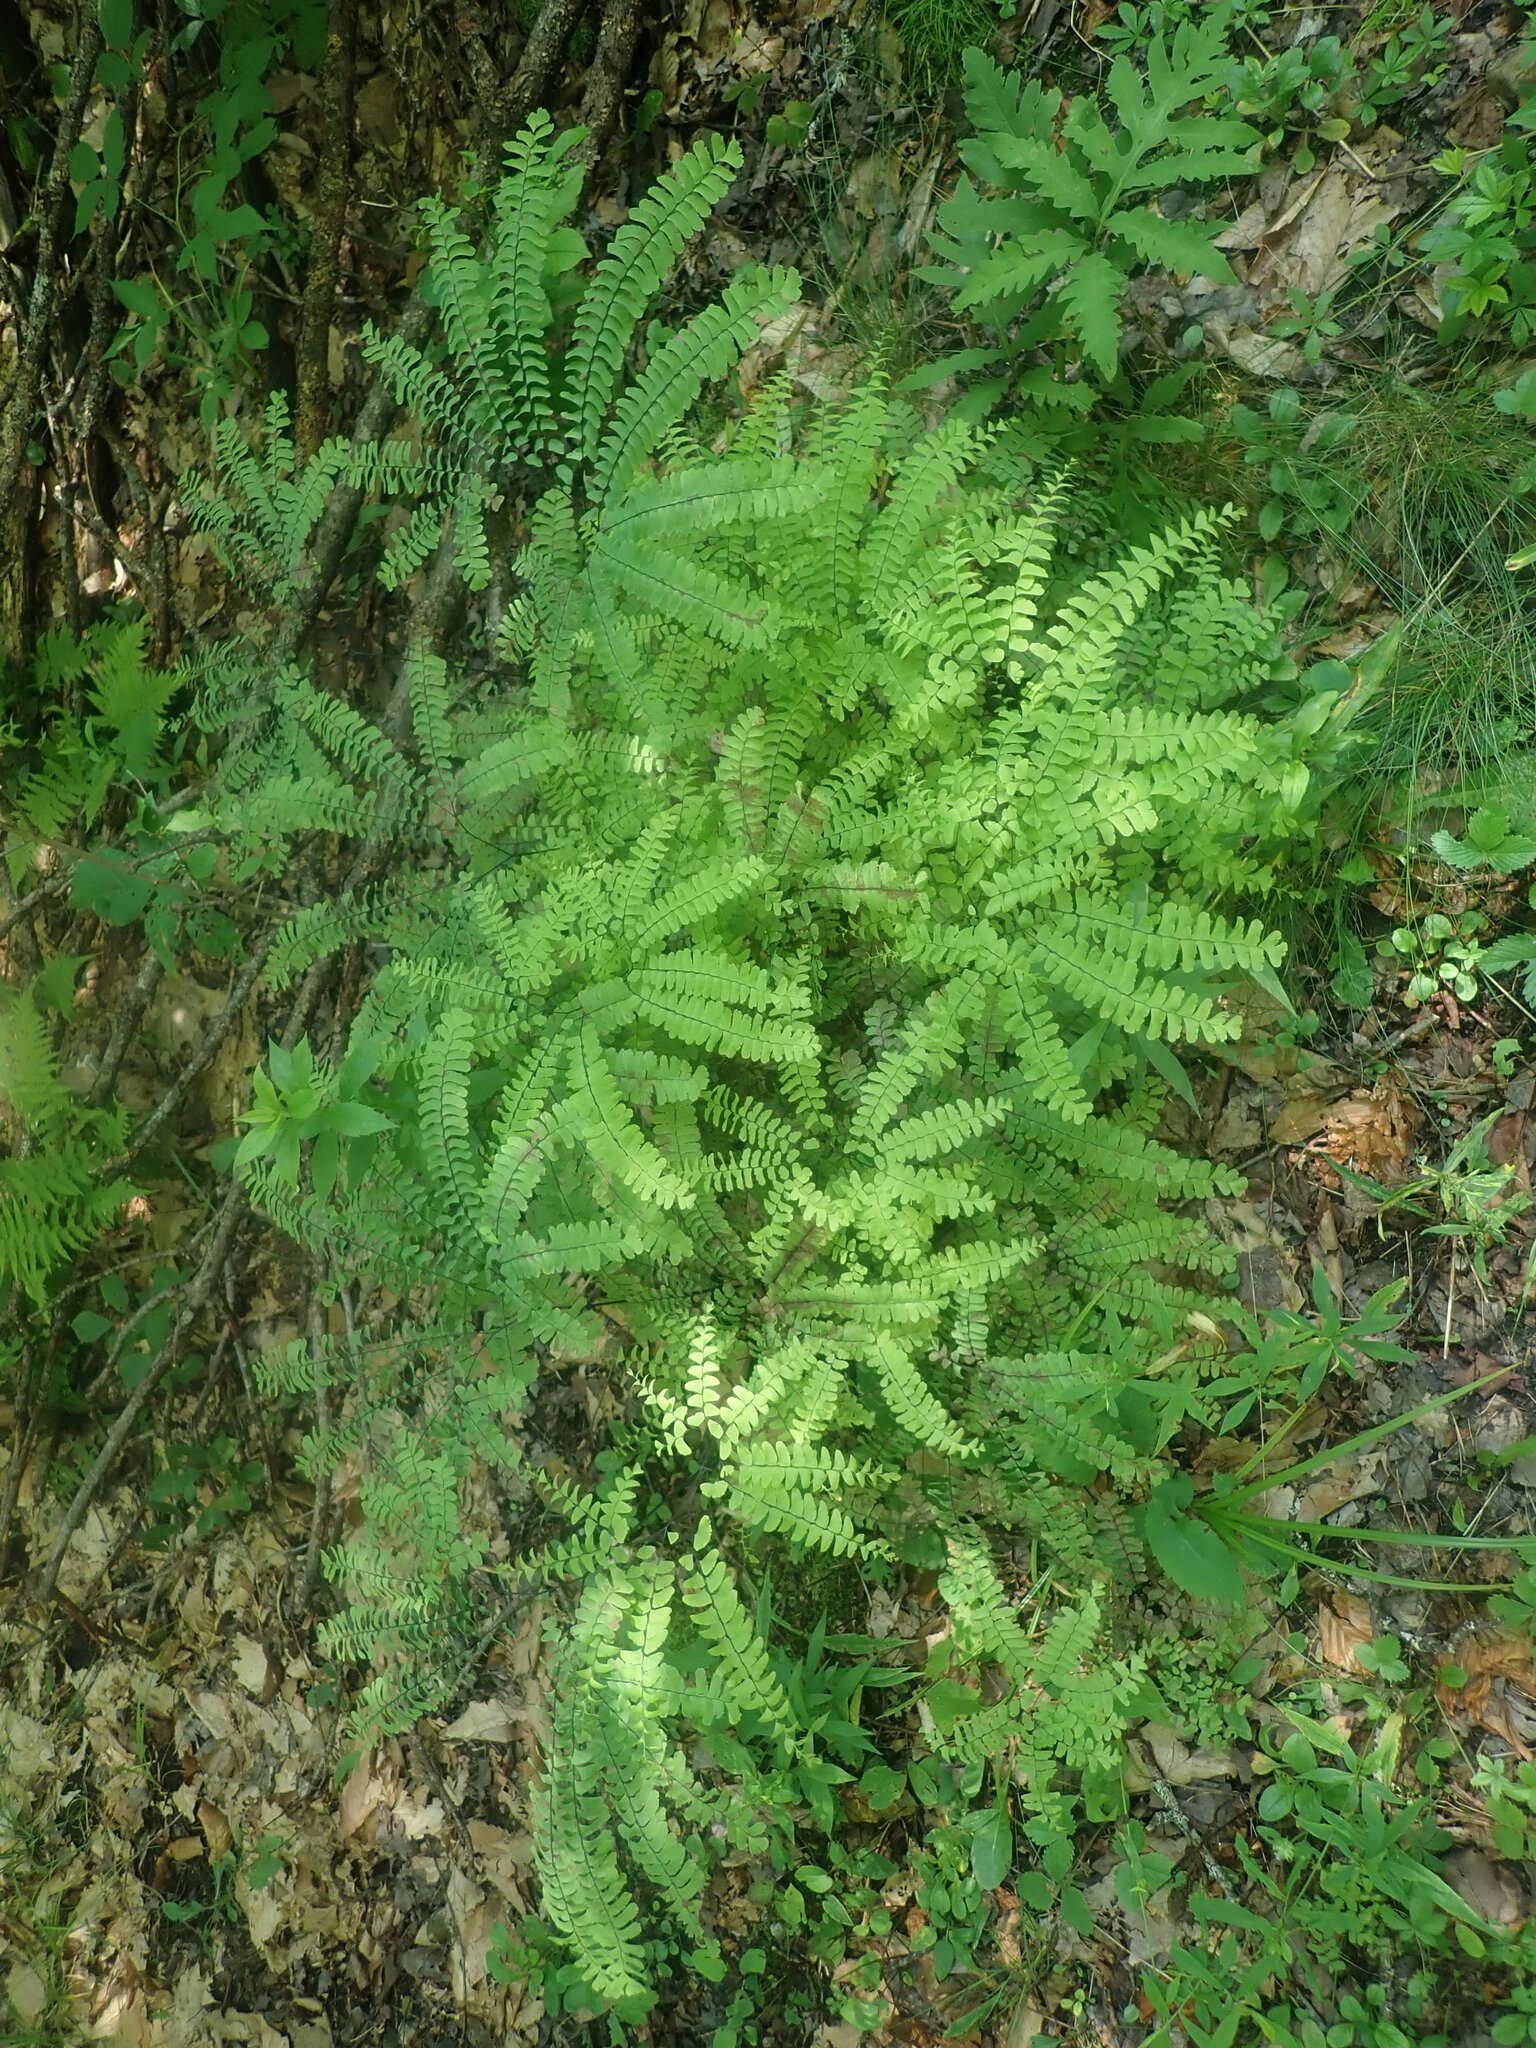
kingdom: Plantae
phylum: Tracheophyta
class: Polypodiopsida
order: Polypodiales
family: Pteridaceae
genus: Adiantum
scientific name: Adiantum pedatum
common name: Five-finger fern
